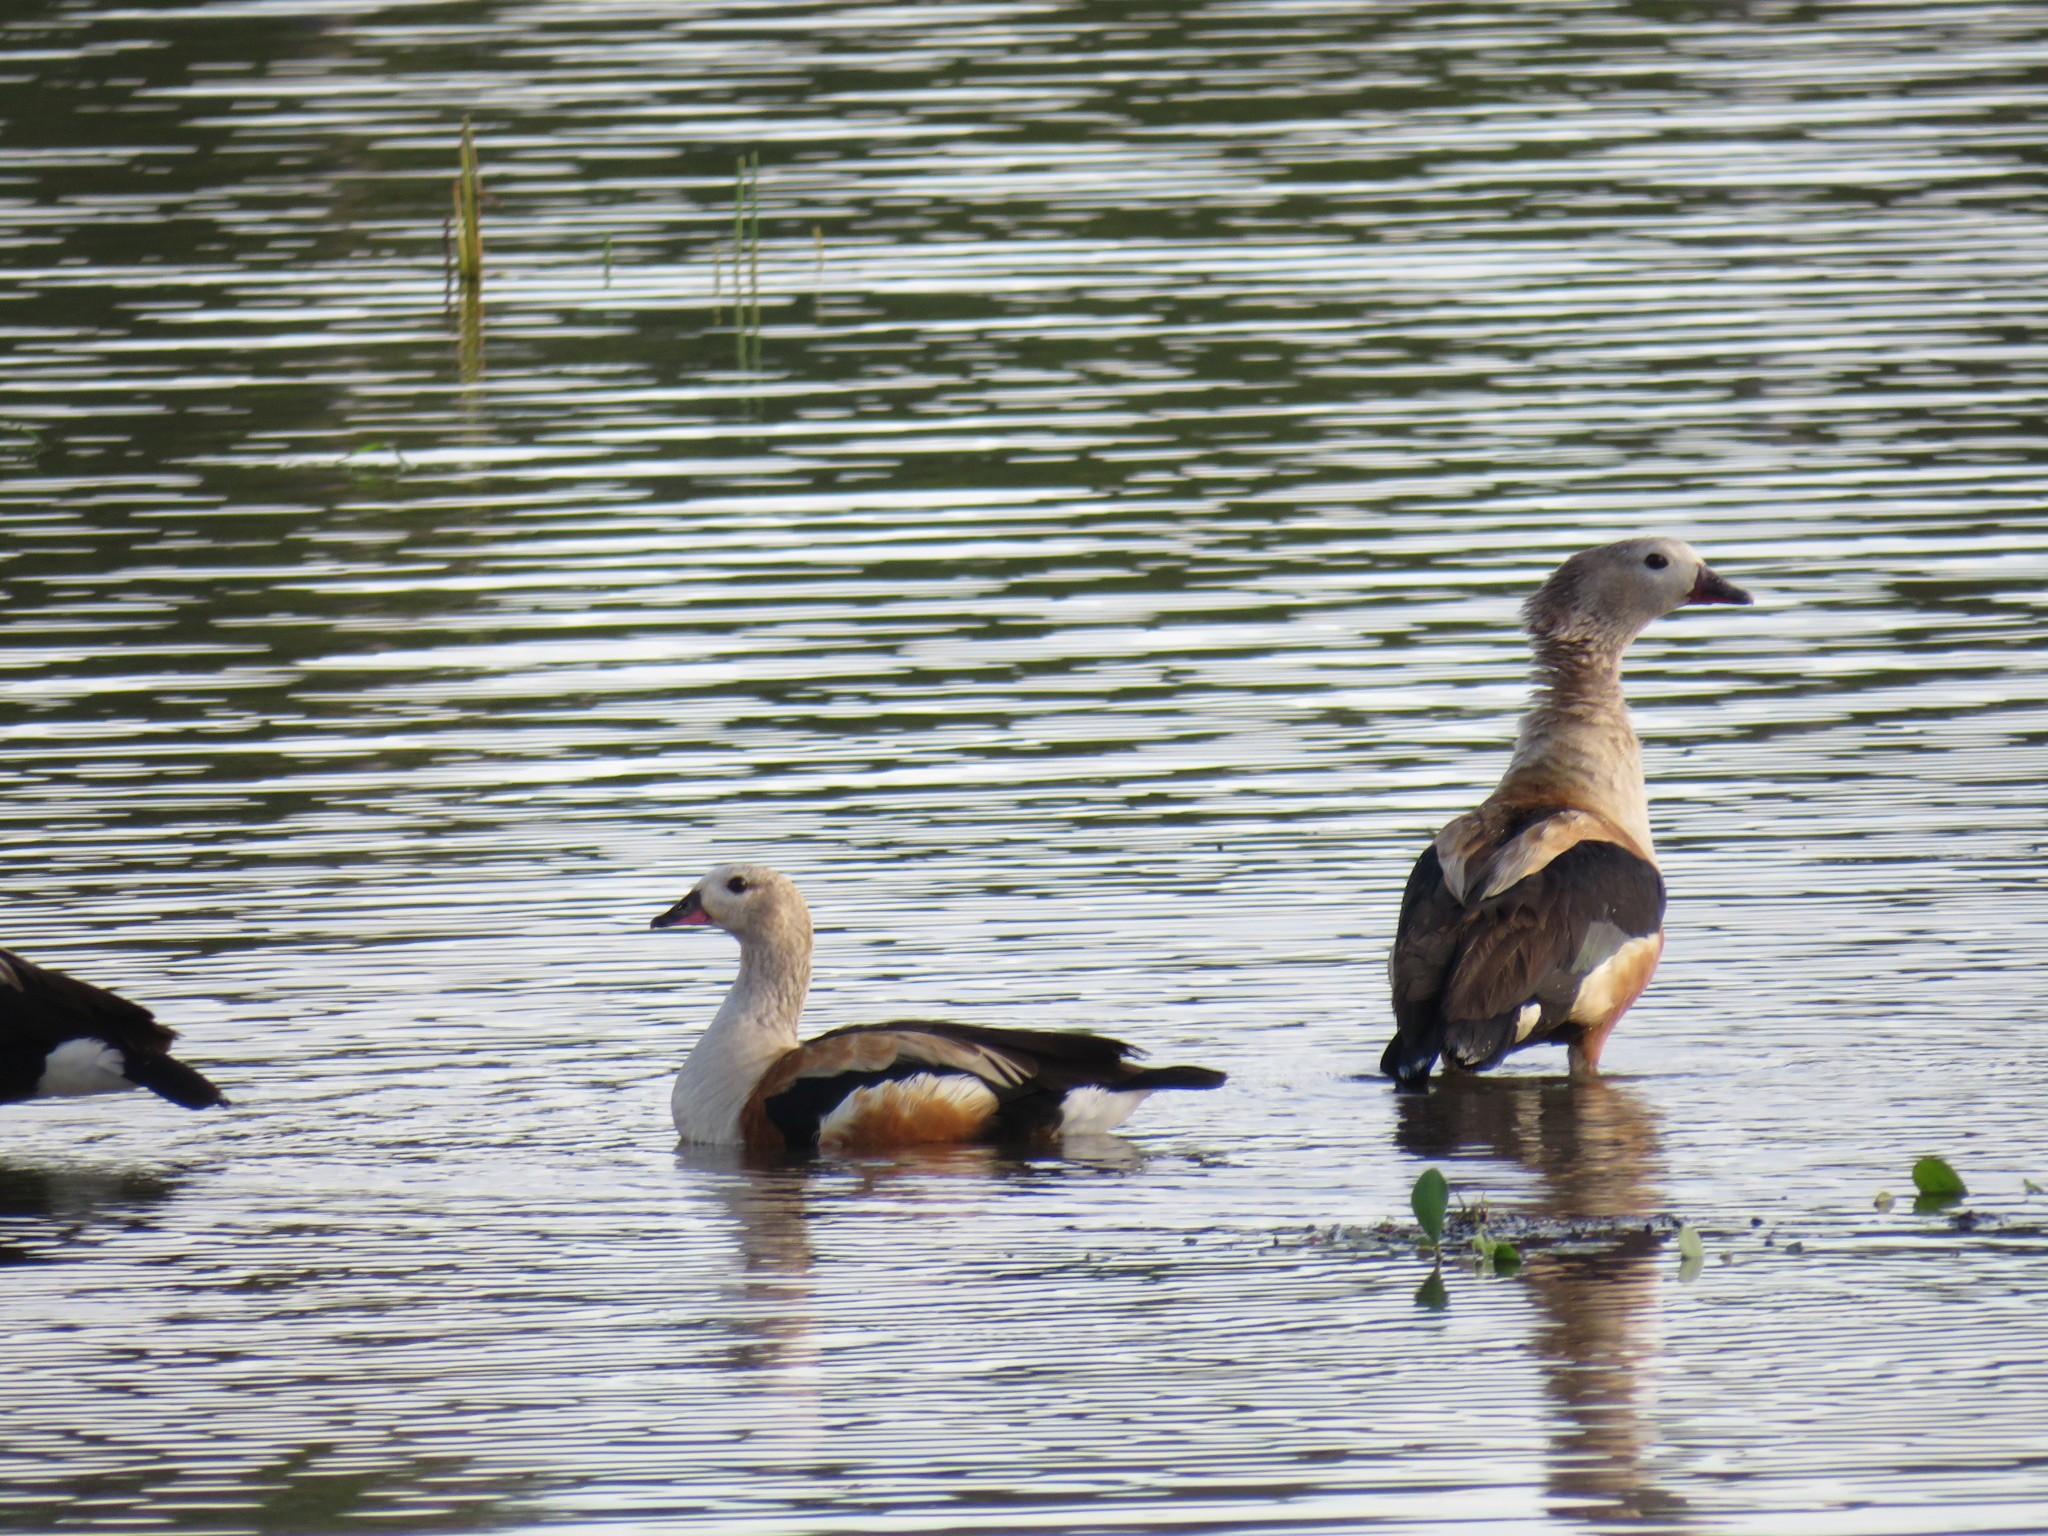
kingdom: Animalia
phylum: Chordata
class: Aves
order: Anseriformes
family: Anatidae
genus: Oressochen
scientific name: Oressochen jubatus
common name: Orinoco goose
